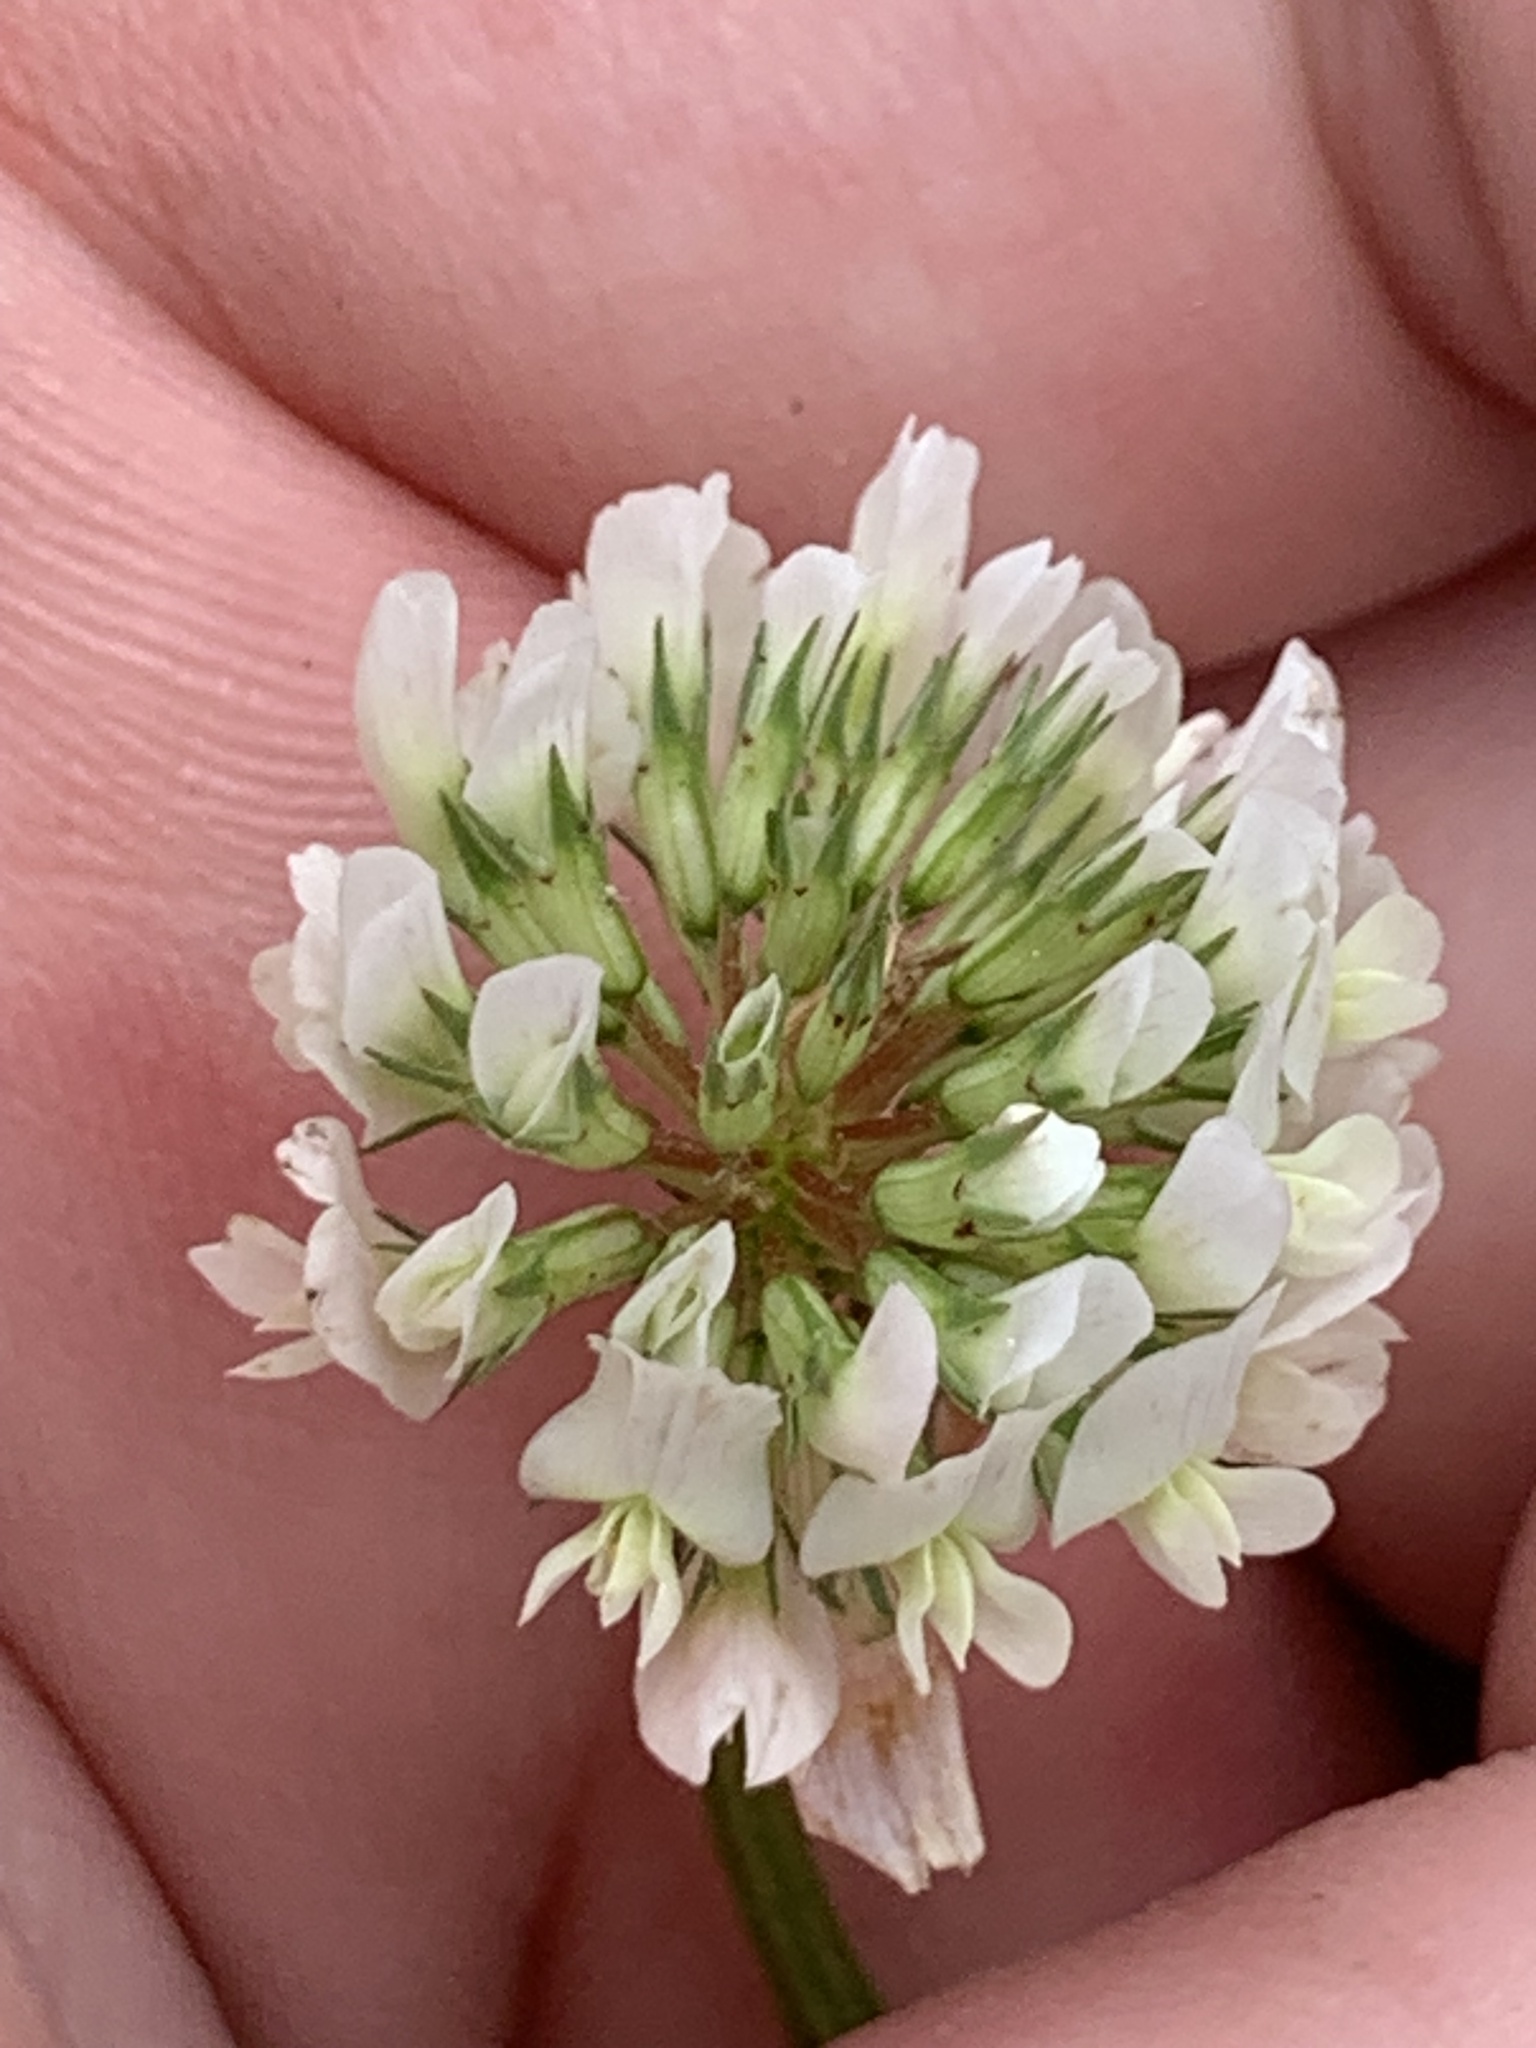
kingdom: Plantae
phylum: Tracheophyta
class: Magnoliopsida
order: Fabales
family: Fabaceae
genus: Trifolium
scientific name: Trifolium repens
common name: White clover
